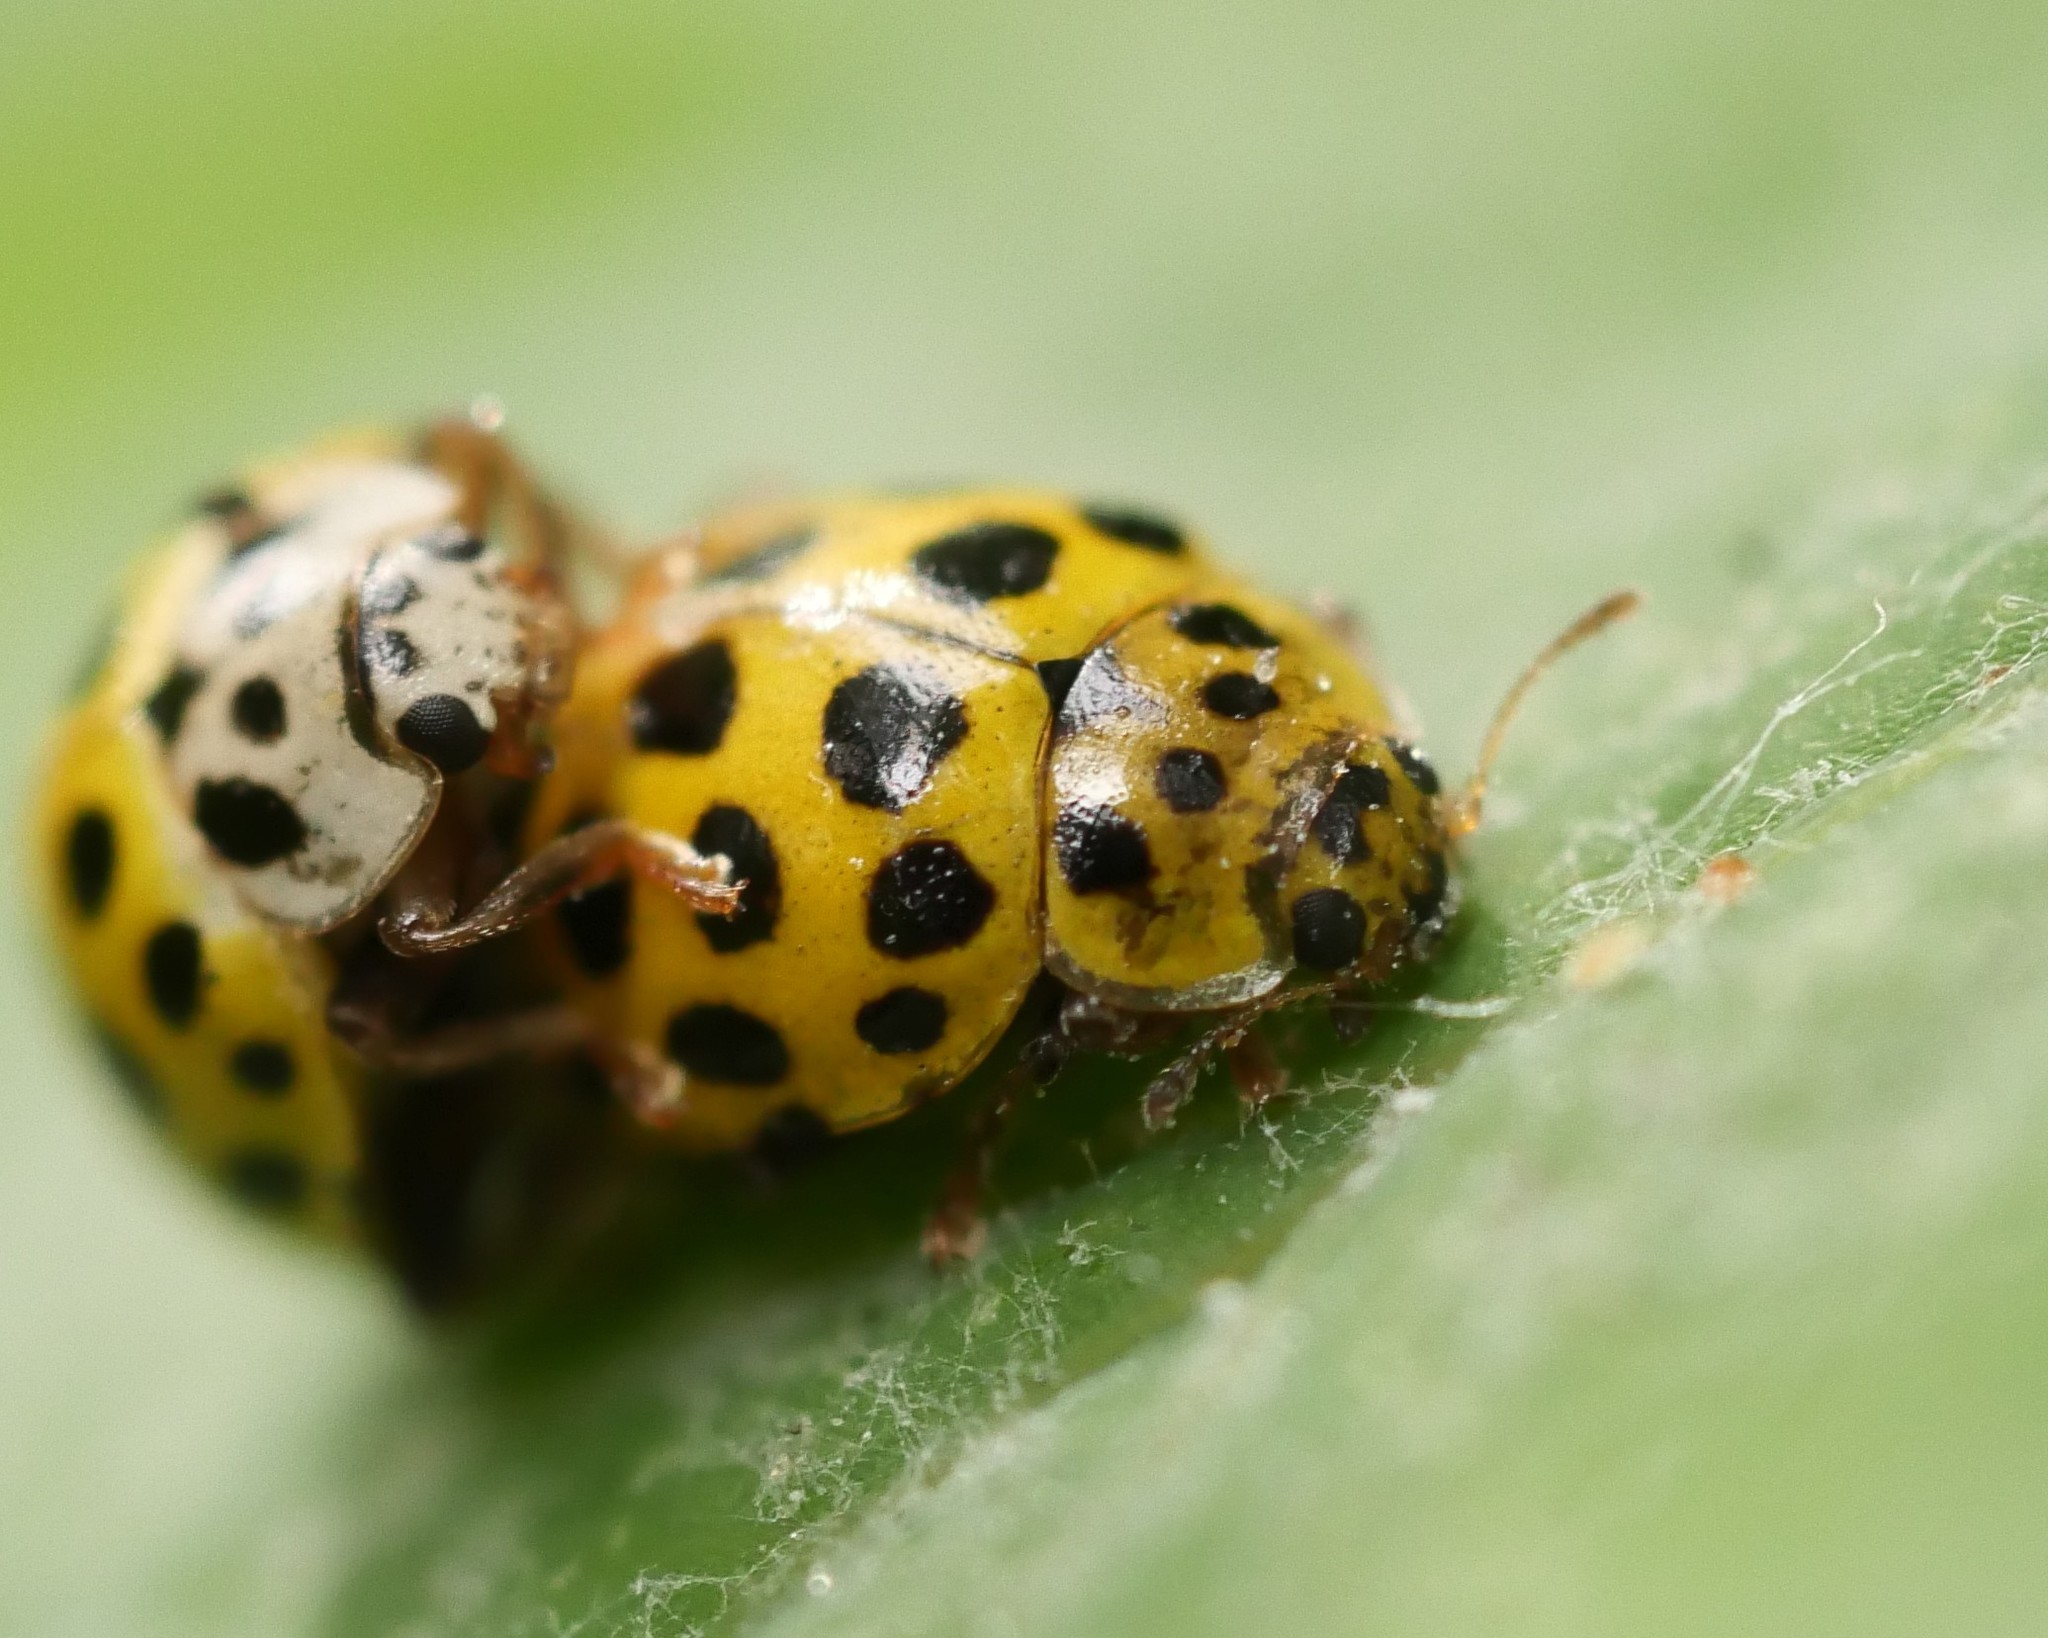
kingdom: Animalia
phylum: Arthropoda
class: Insecta
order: Coleoptera
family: Coccinellidae
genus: Psyllobora
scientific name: Psyllobora vigintiduopunctata
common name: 22-spot ladybird
